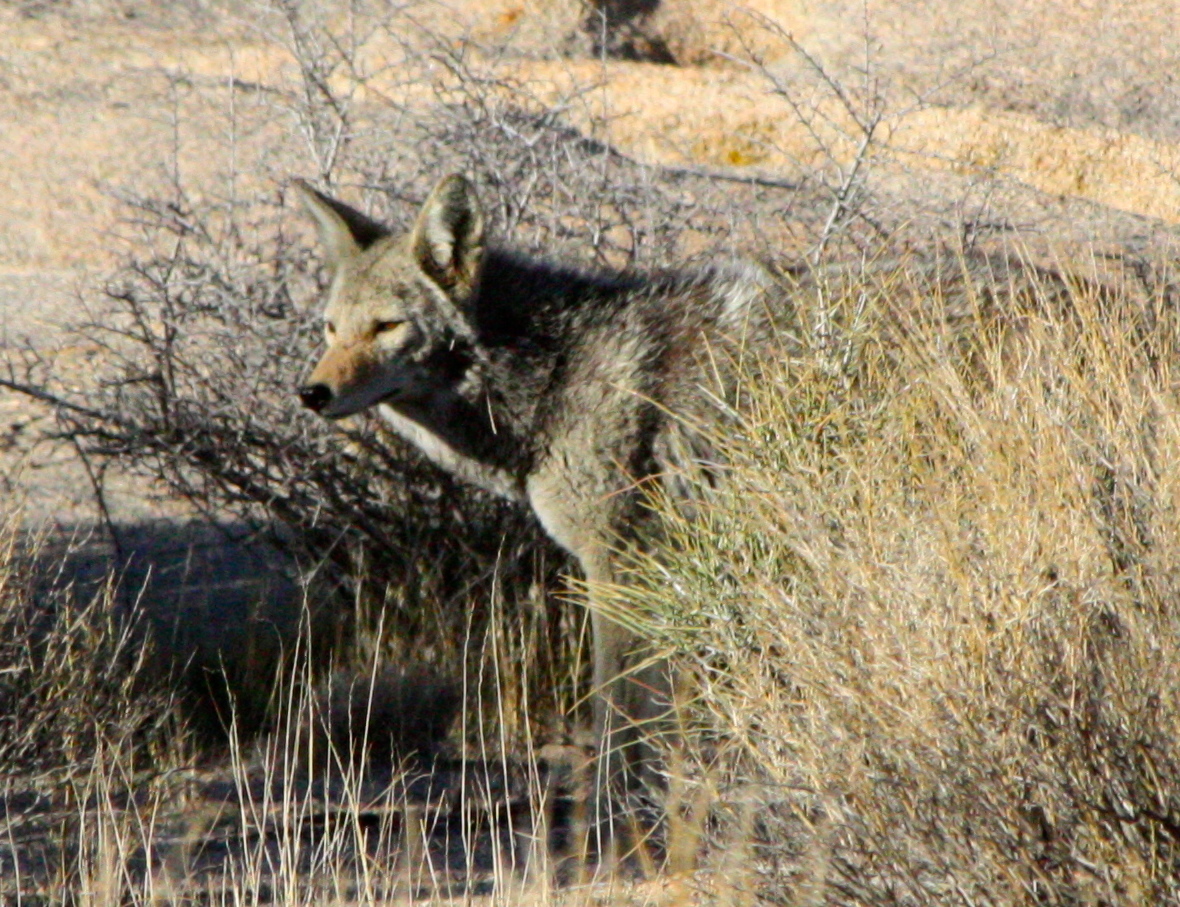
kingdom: Animalia
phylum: Chordata
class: Mammalia
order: Carnivora
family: Canidae
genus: Canis
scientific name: Canis latrans
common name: Coyote
